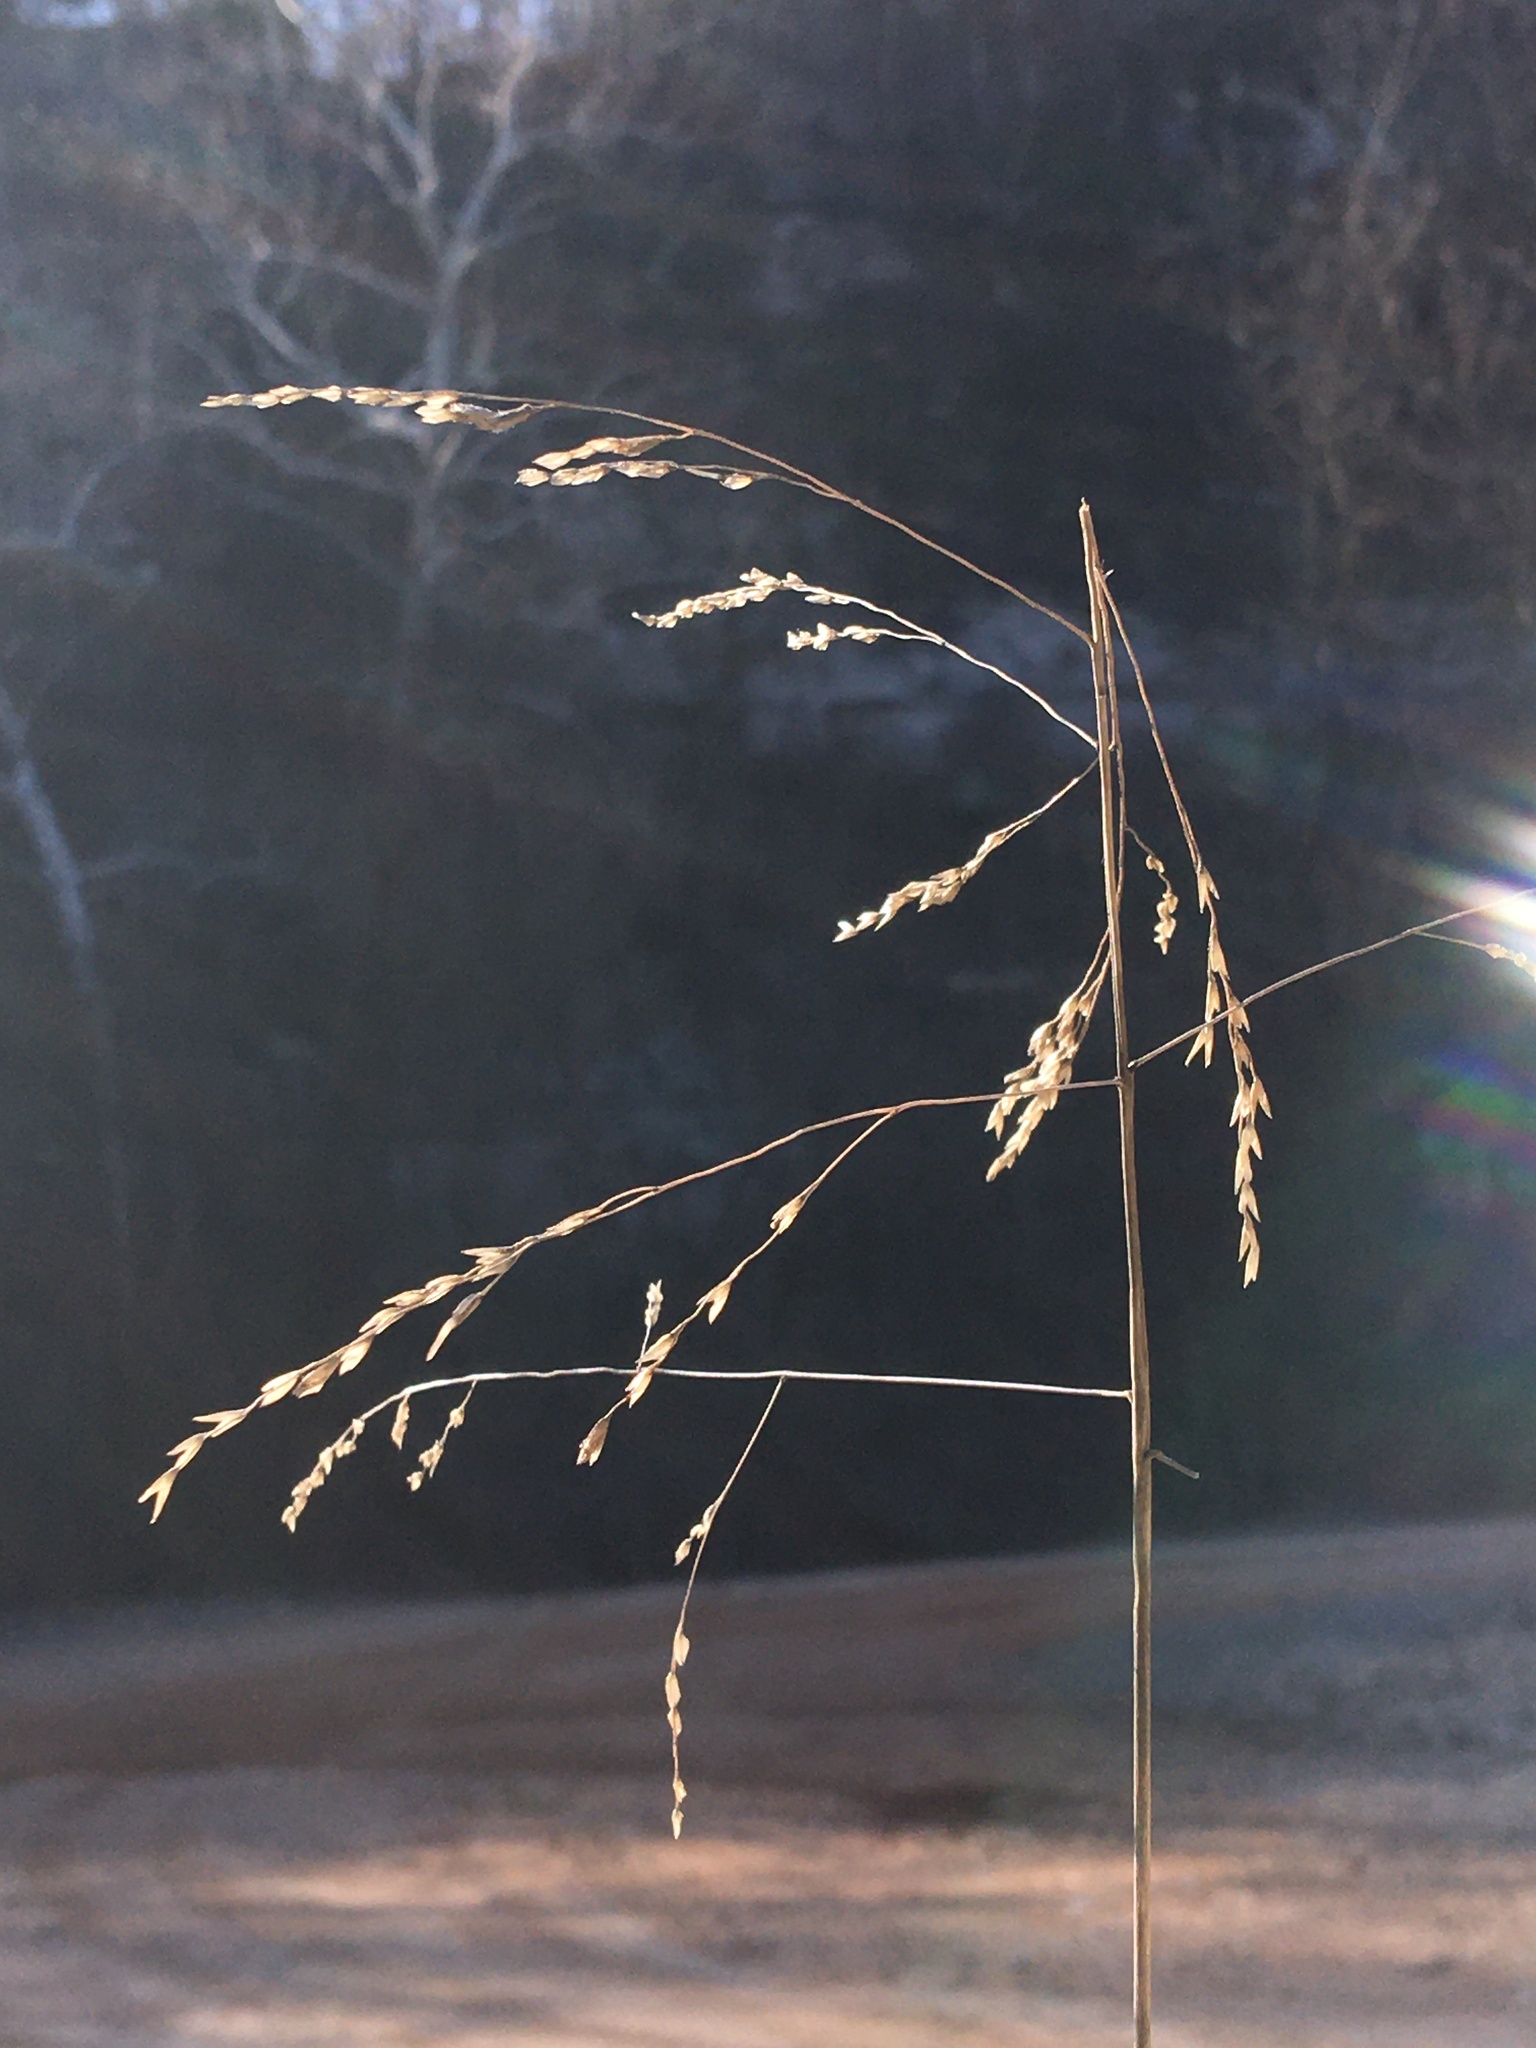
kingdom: Plantae
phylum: Tracheophyta
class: Liliopsida
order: Poales
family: Poaceae
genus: Tridens
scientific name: Tridens flavus
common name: Purpletop
